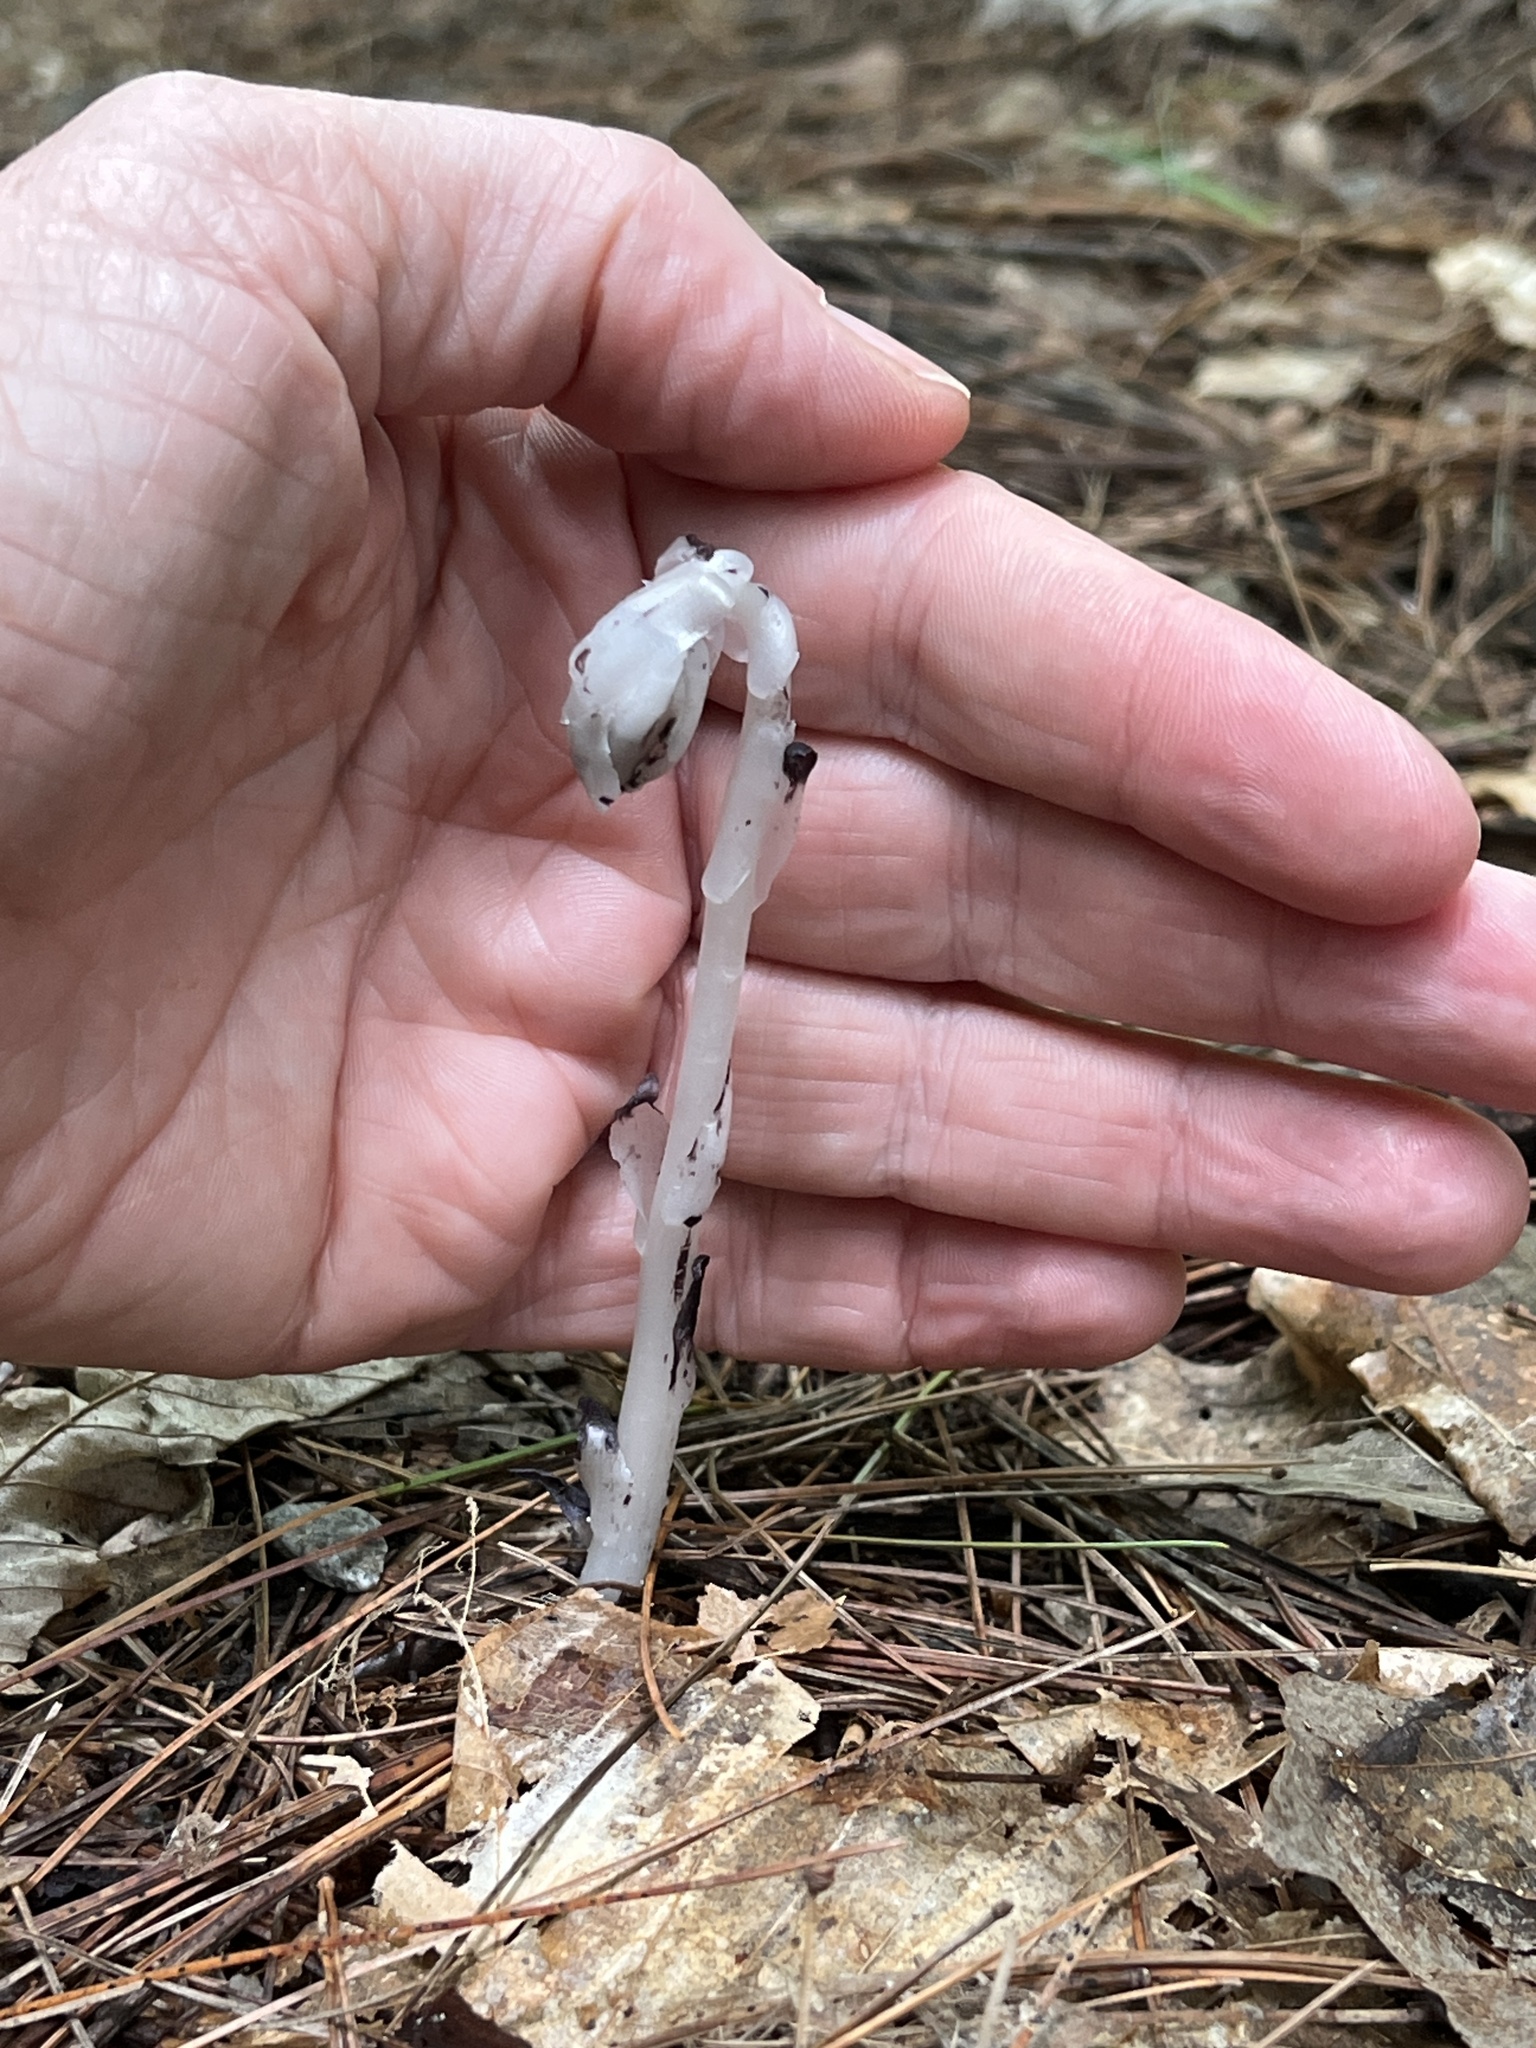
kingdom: Plantae
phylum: Tracheophyta
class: Magnoliopsida
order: Ericales
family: Ericaceae
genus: Monotropa
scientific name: Monotropa uniflora
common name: Convulsion root
